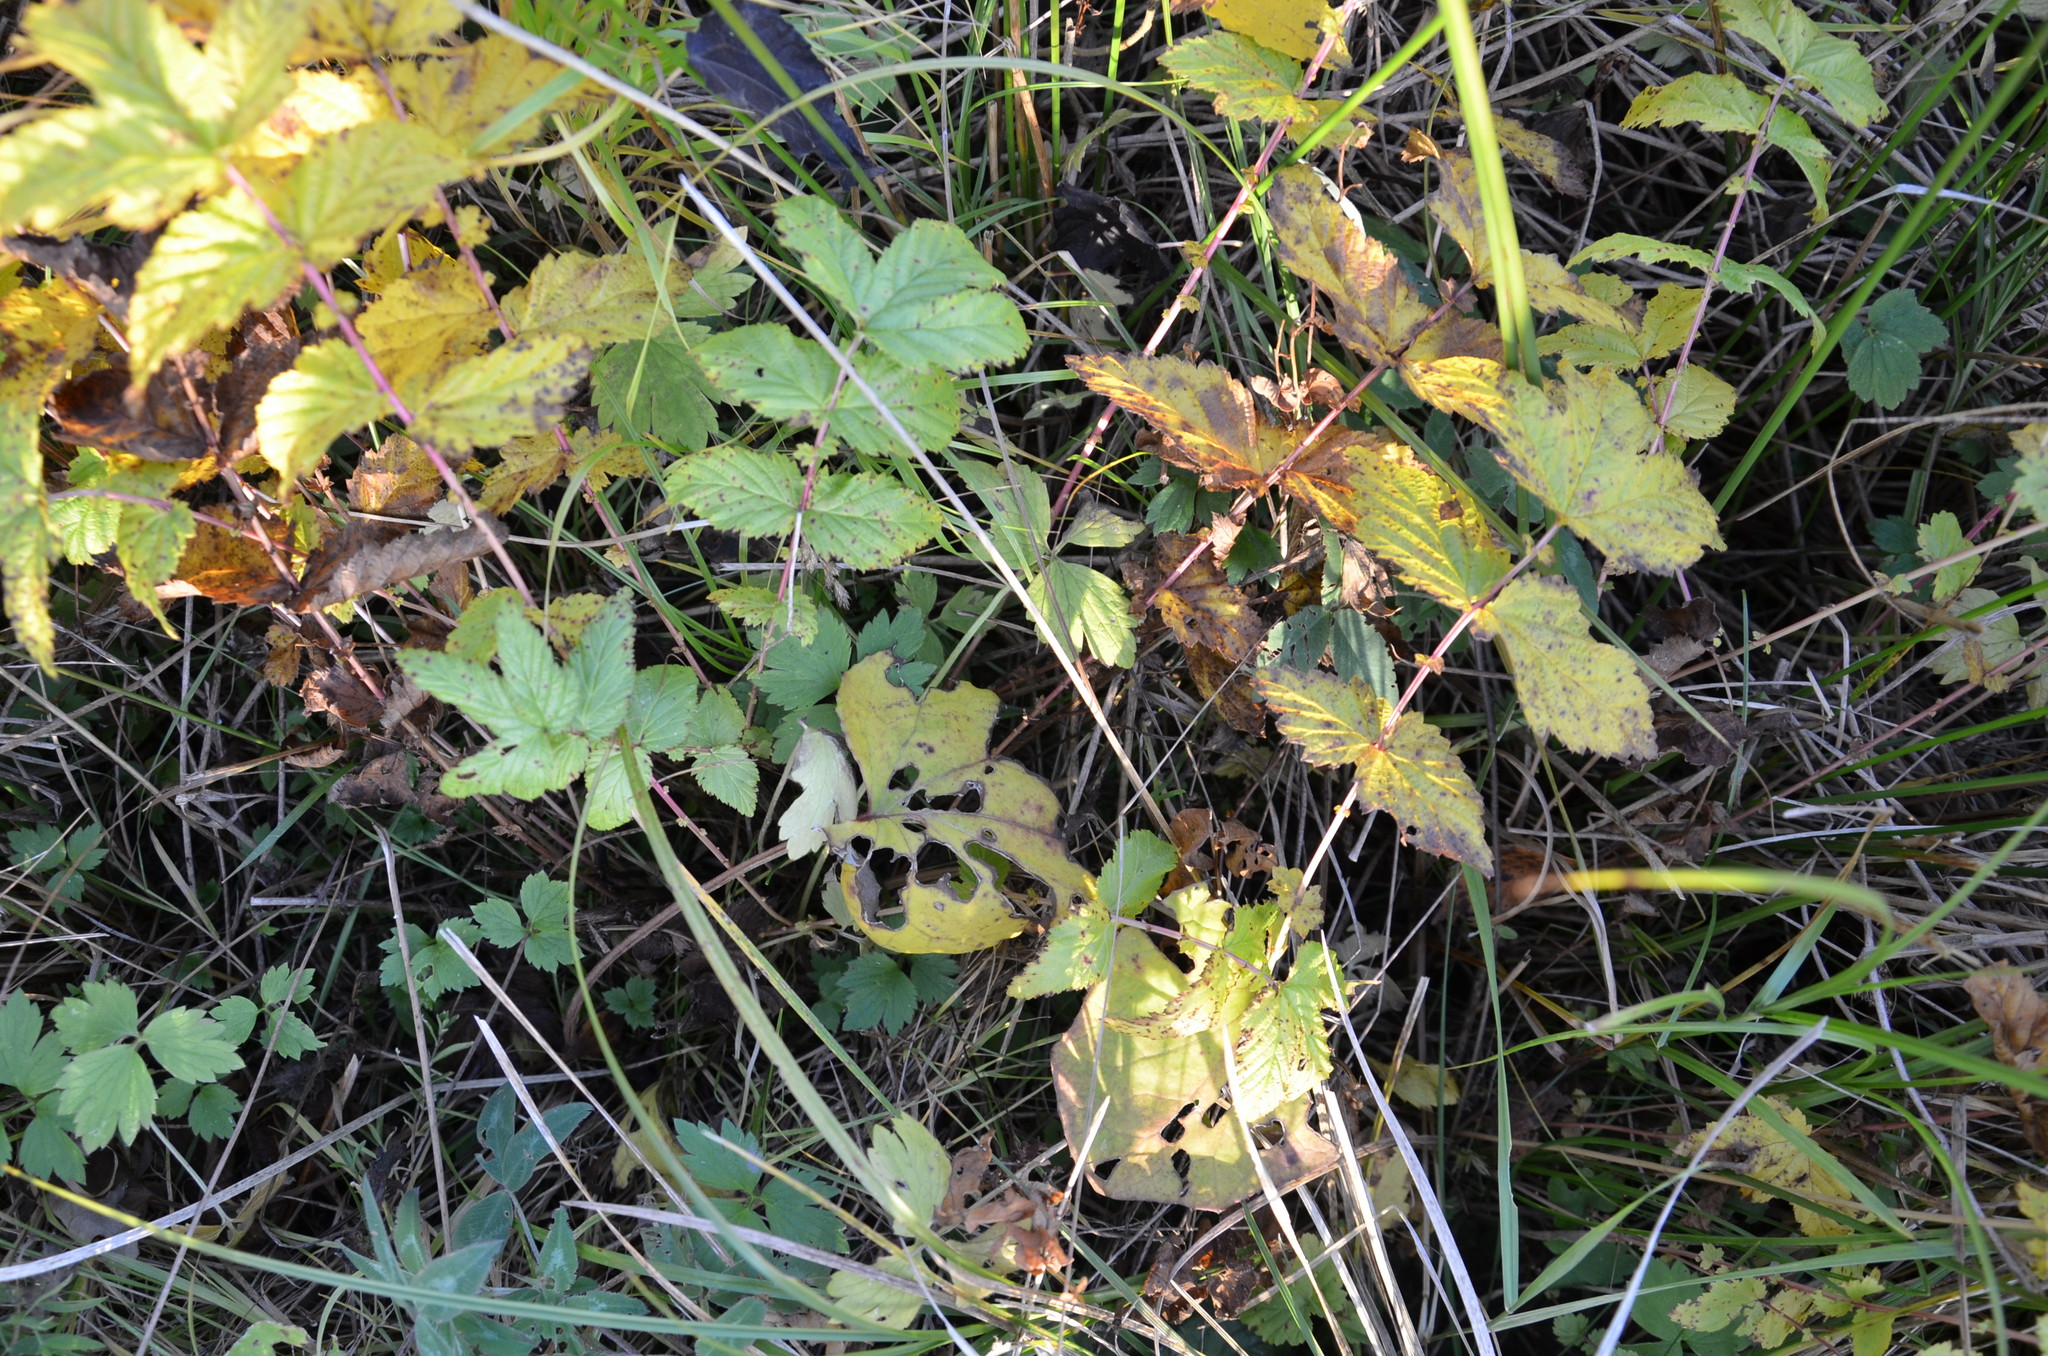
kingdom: Plantae
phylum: Tracheophyta
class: Magnoliopsida
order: Rosales
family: Rosaceae
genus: Filipendula
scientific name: Filipendula ulmaria
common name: Meadowsweet
